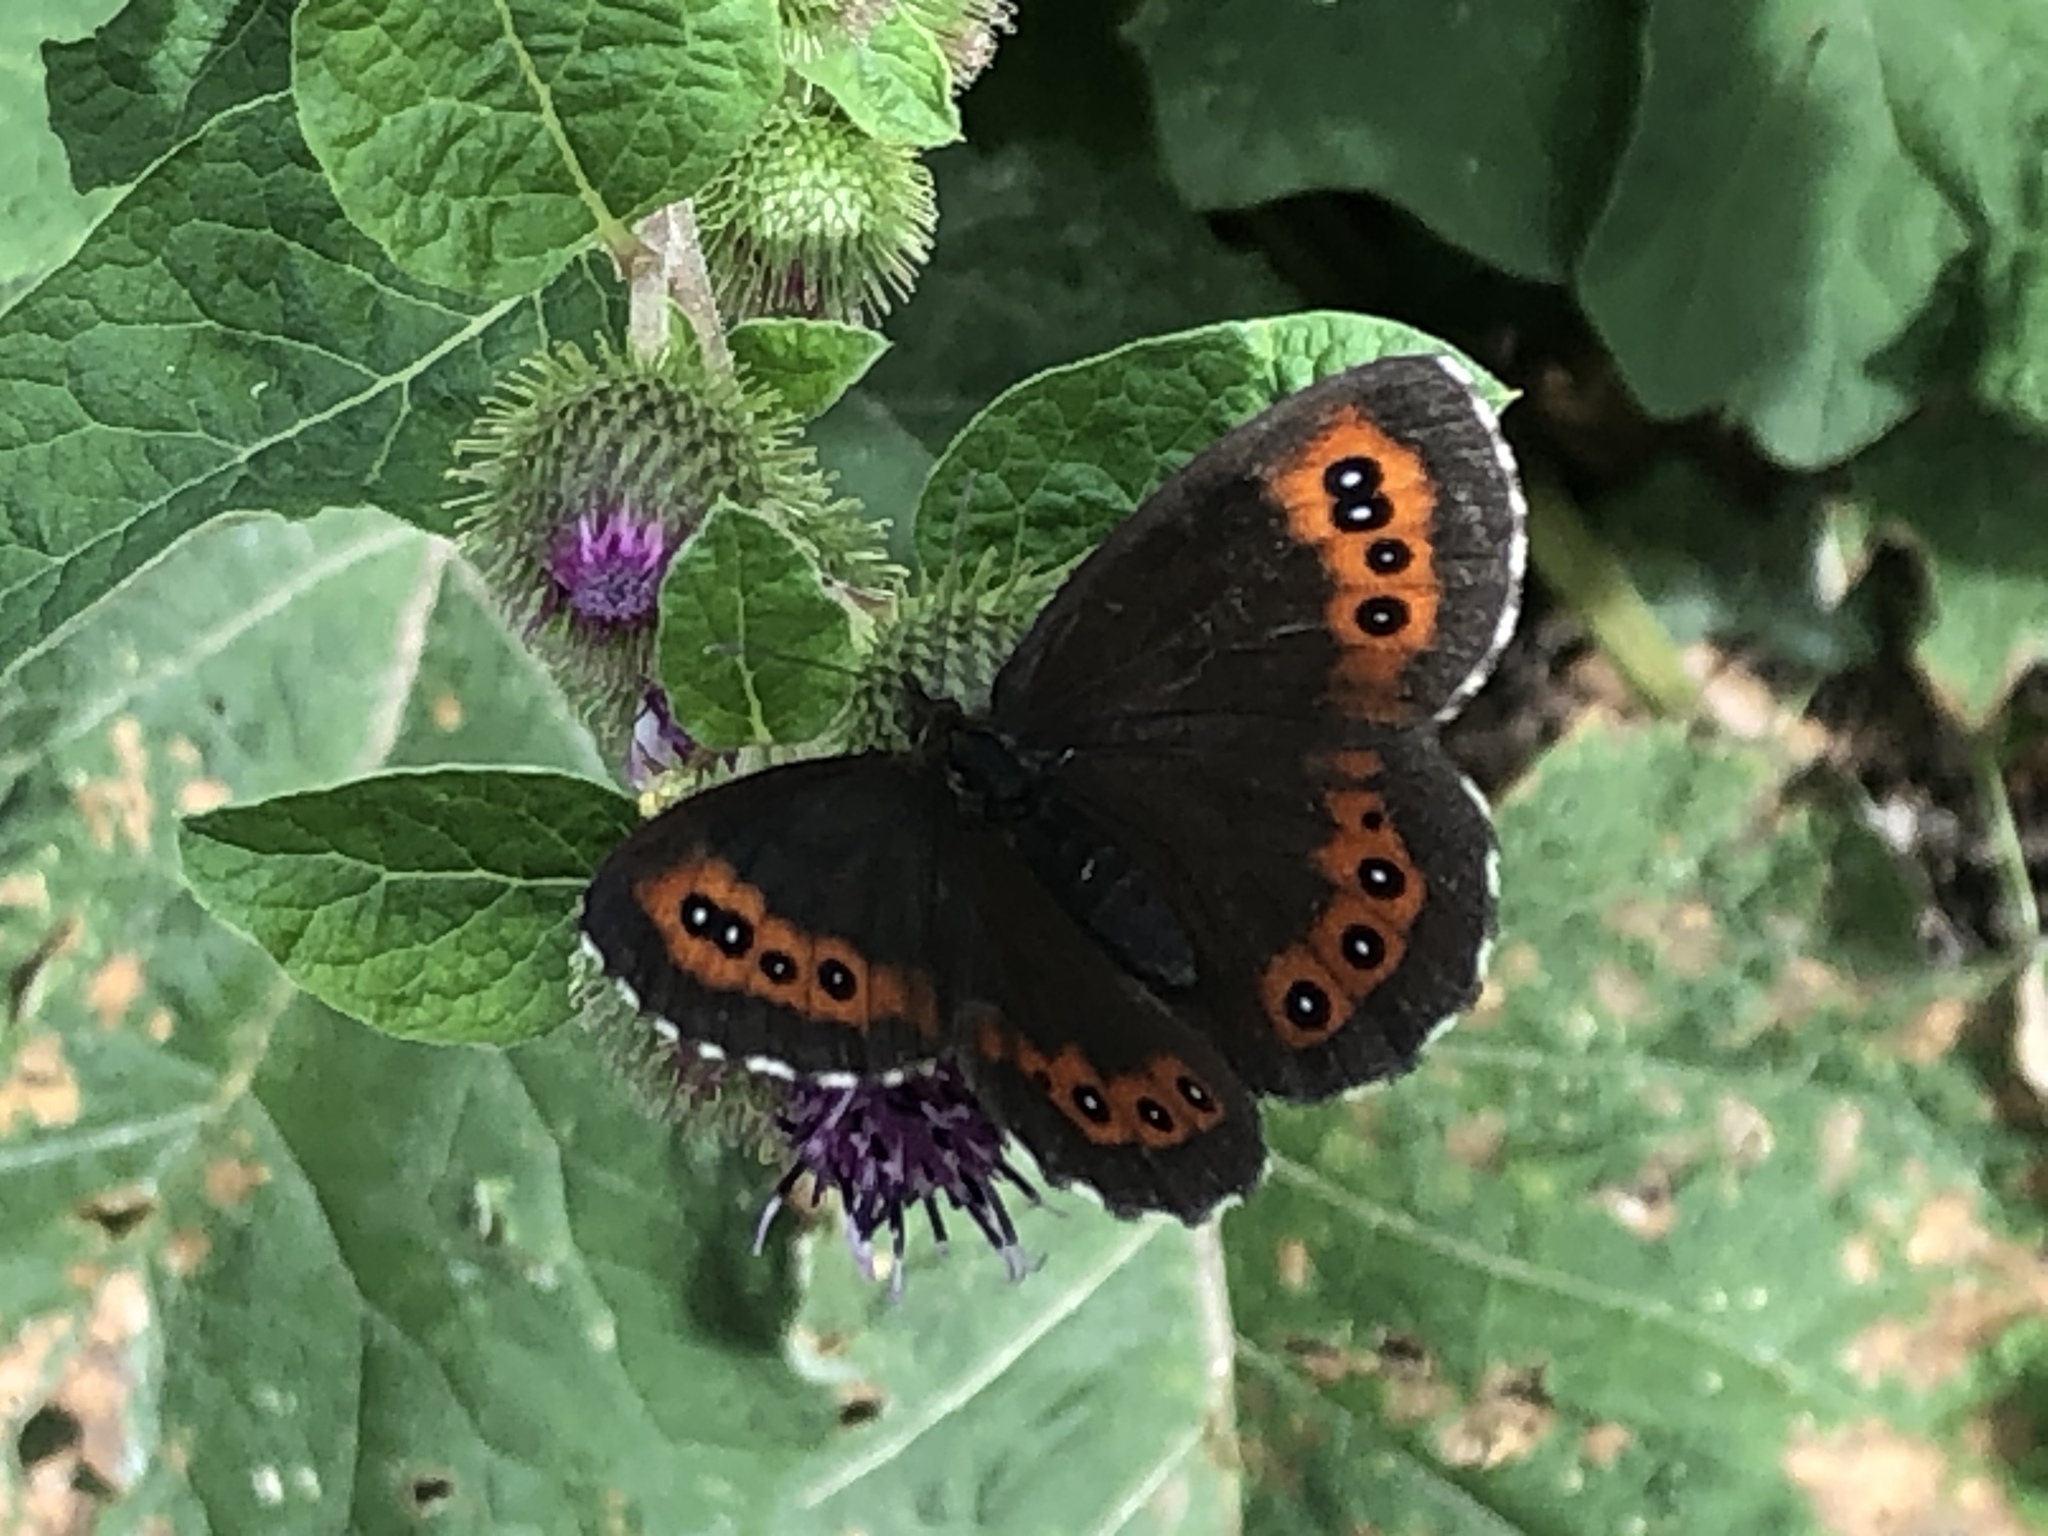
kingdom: Animalia
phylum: Arthropoda
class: Insecta
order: Lepidoptera
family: Nymphalidae
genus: Erebia
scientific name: Erebia ligea
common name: Arran brown
